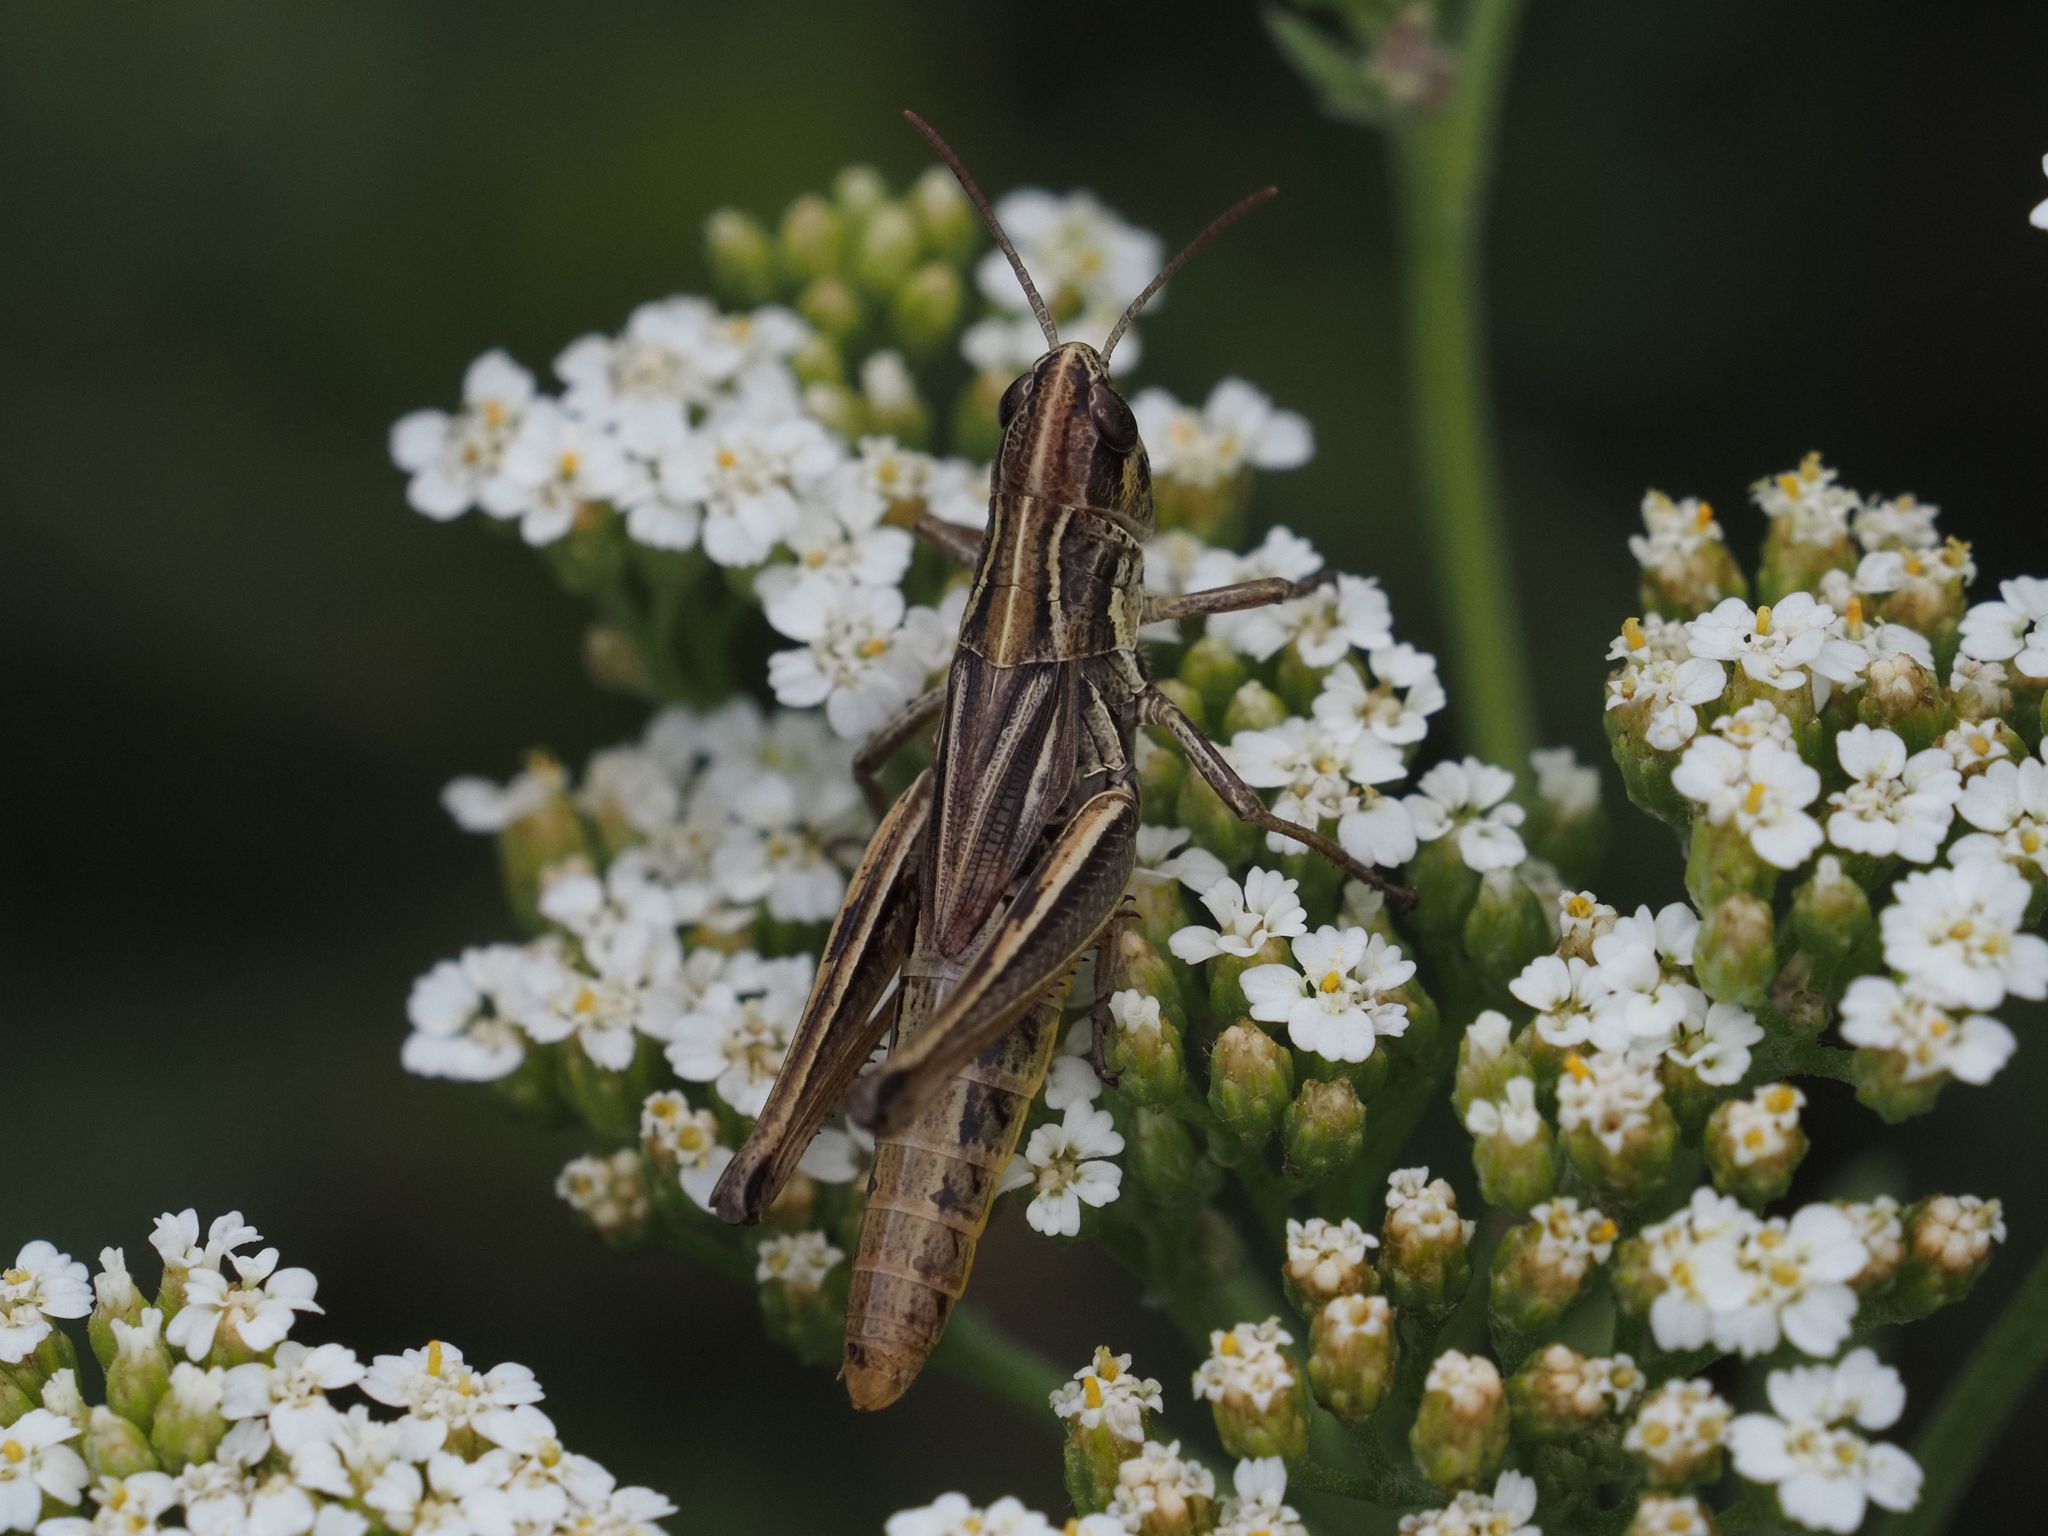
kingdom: Animalia
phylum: Arthropoda
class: Insecta
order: Orthoptera
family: Acrididae
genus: Pseudochorthippus
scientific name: Pseudochorthippus parallelus
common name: Meadow grasshopper
